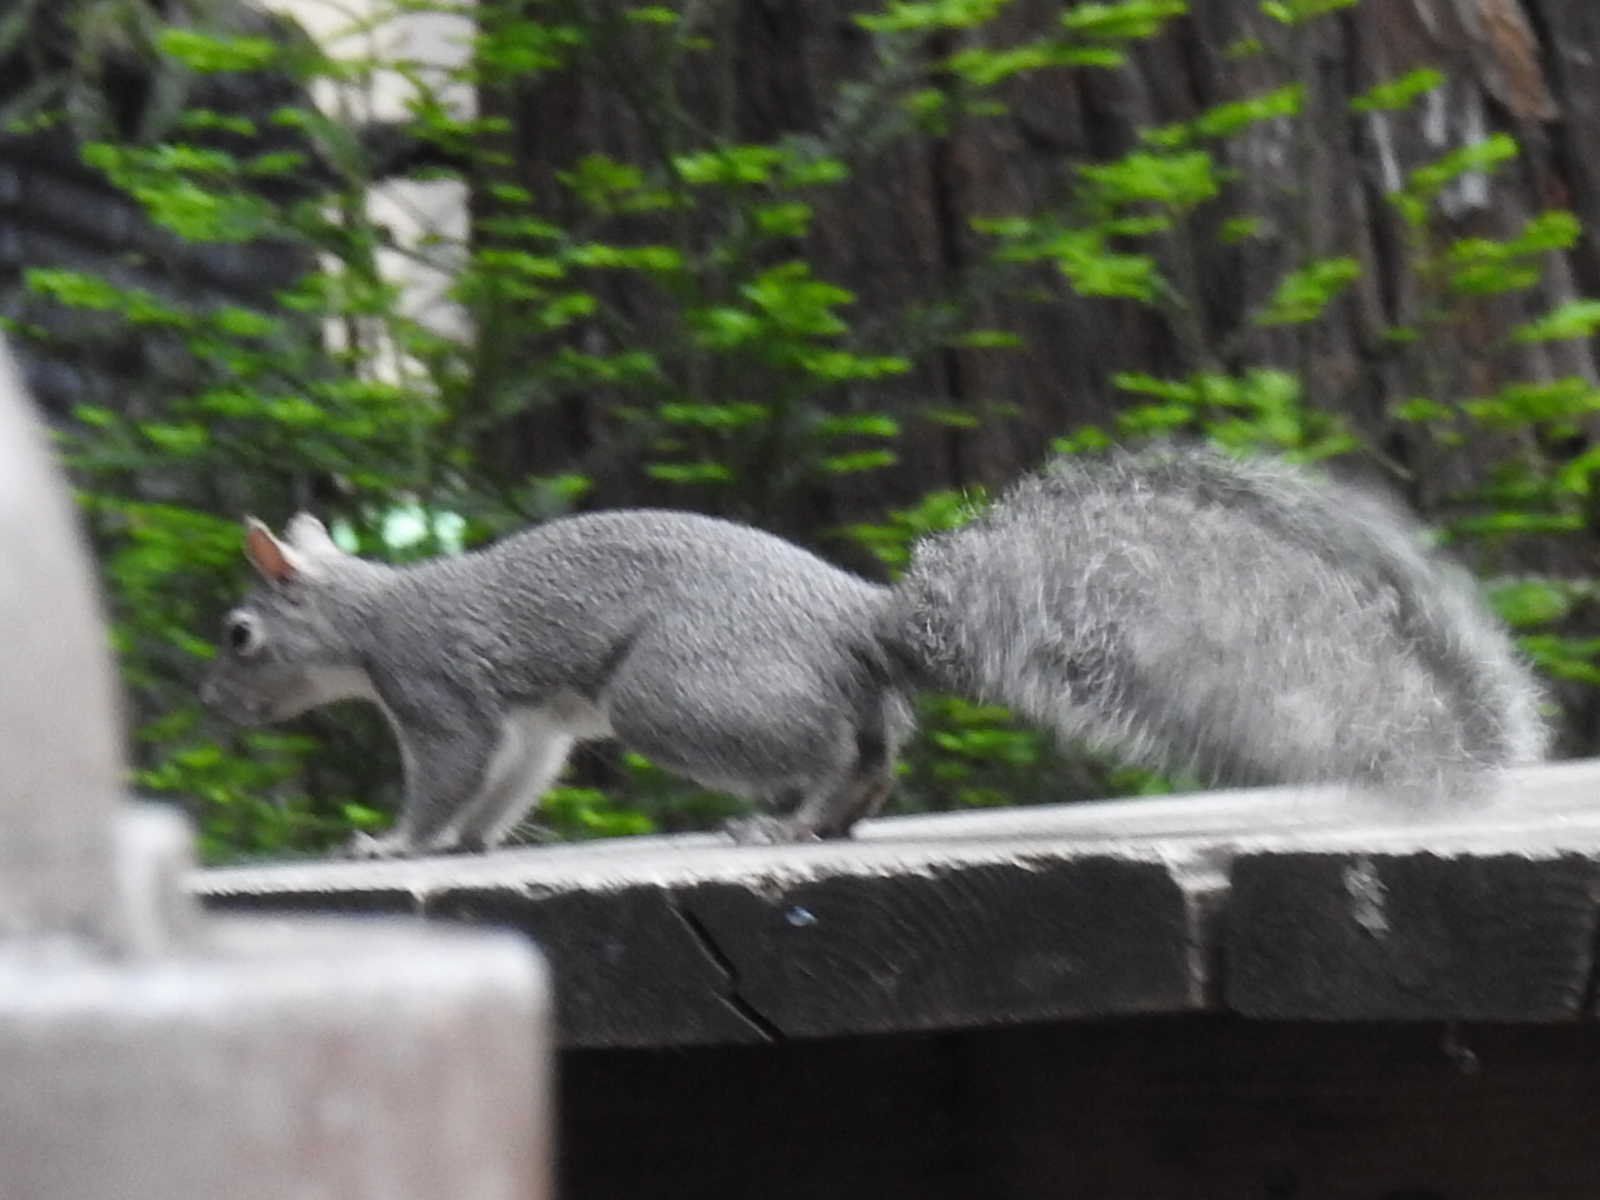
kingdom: Animalia
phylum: Chordata
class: Mammalia
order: Rodentia
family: Sciuridae
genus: Sciurus
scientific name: Sciurus griseus
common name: Western gray squirrel
